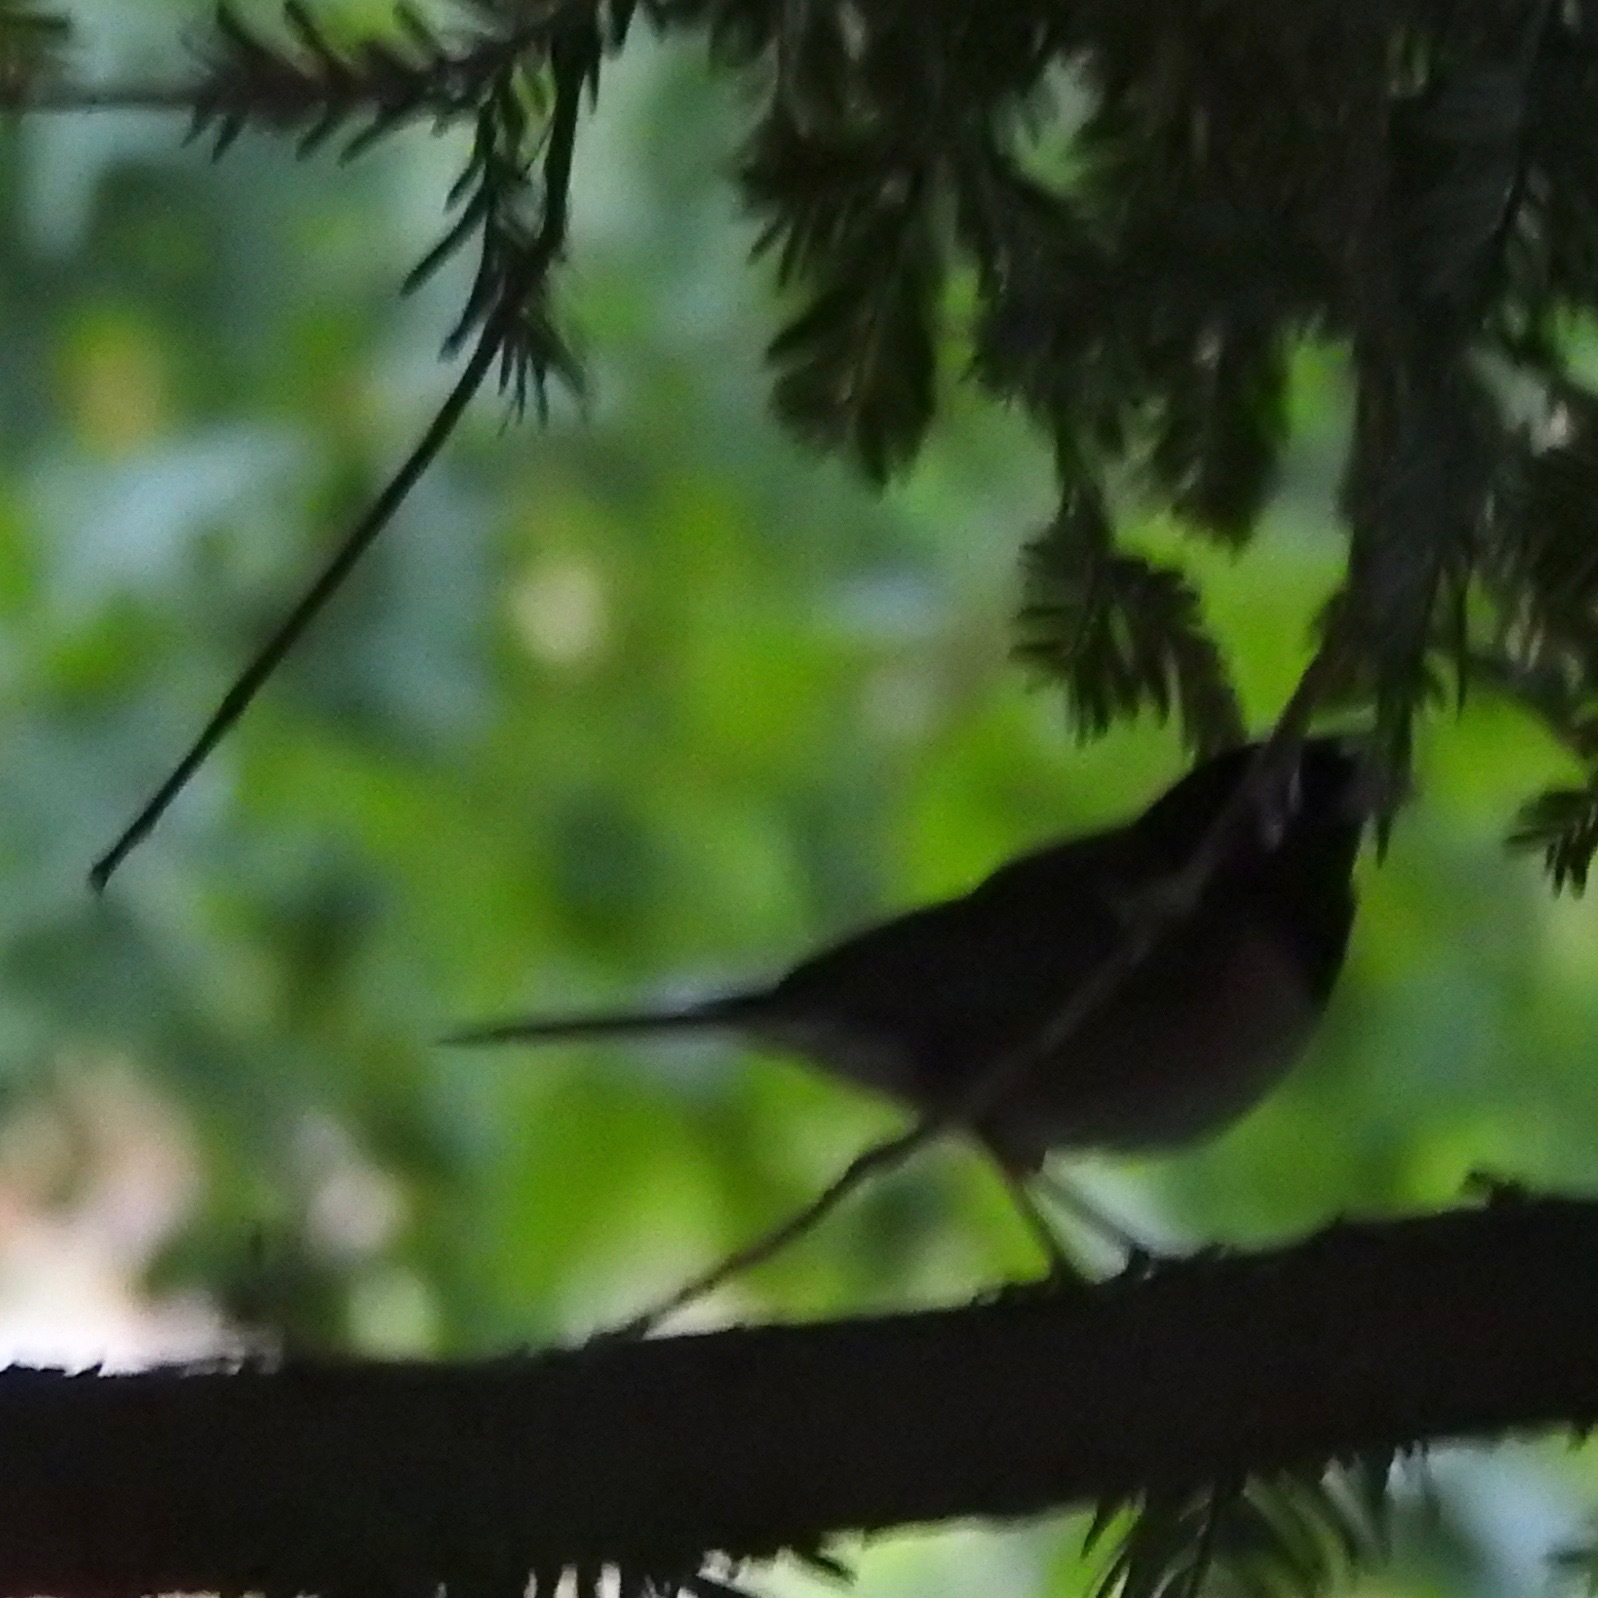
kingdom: Animalia
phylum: Chordata
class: Aves
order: Passeriformes
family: Passerellidae
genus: Junco
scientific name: Junco hyemalis
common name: Dark-eyed junco
